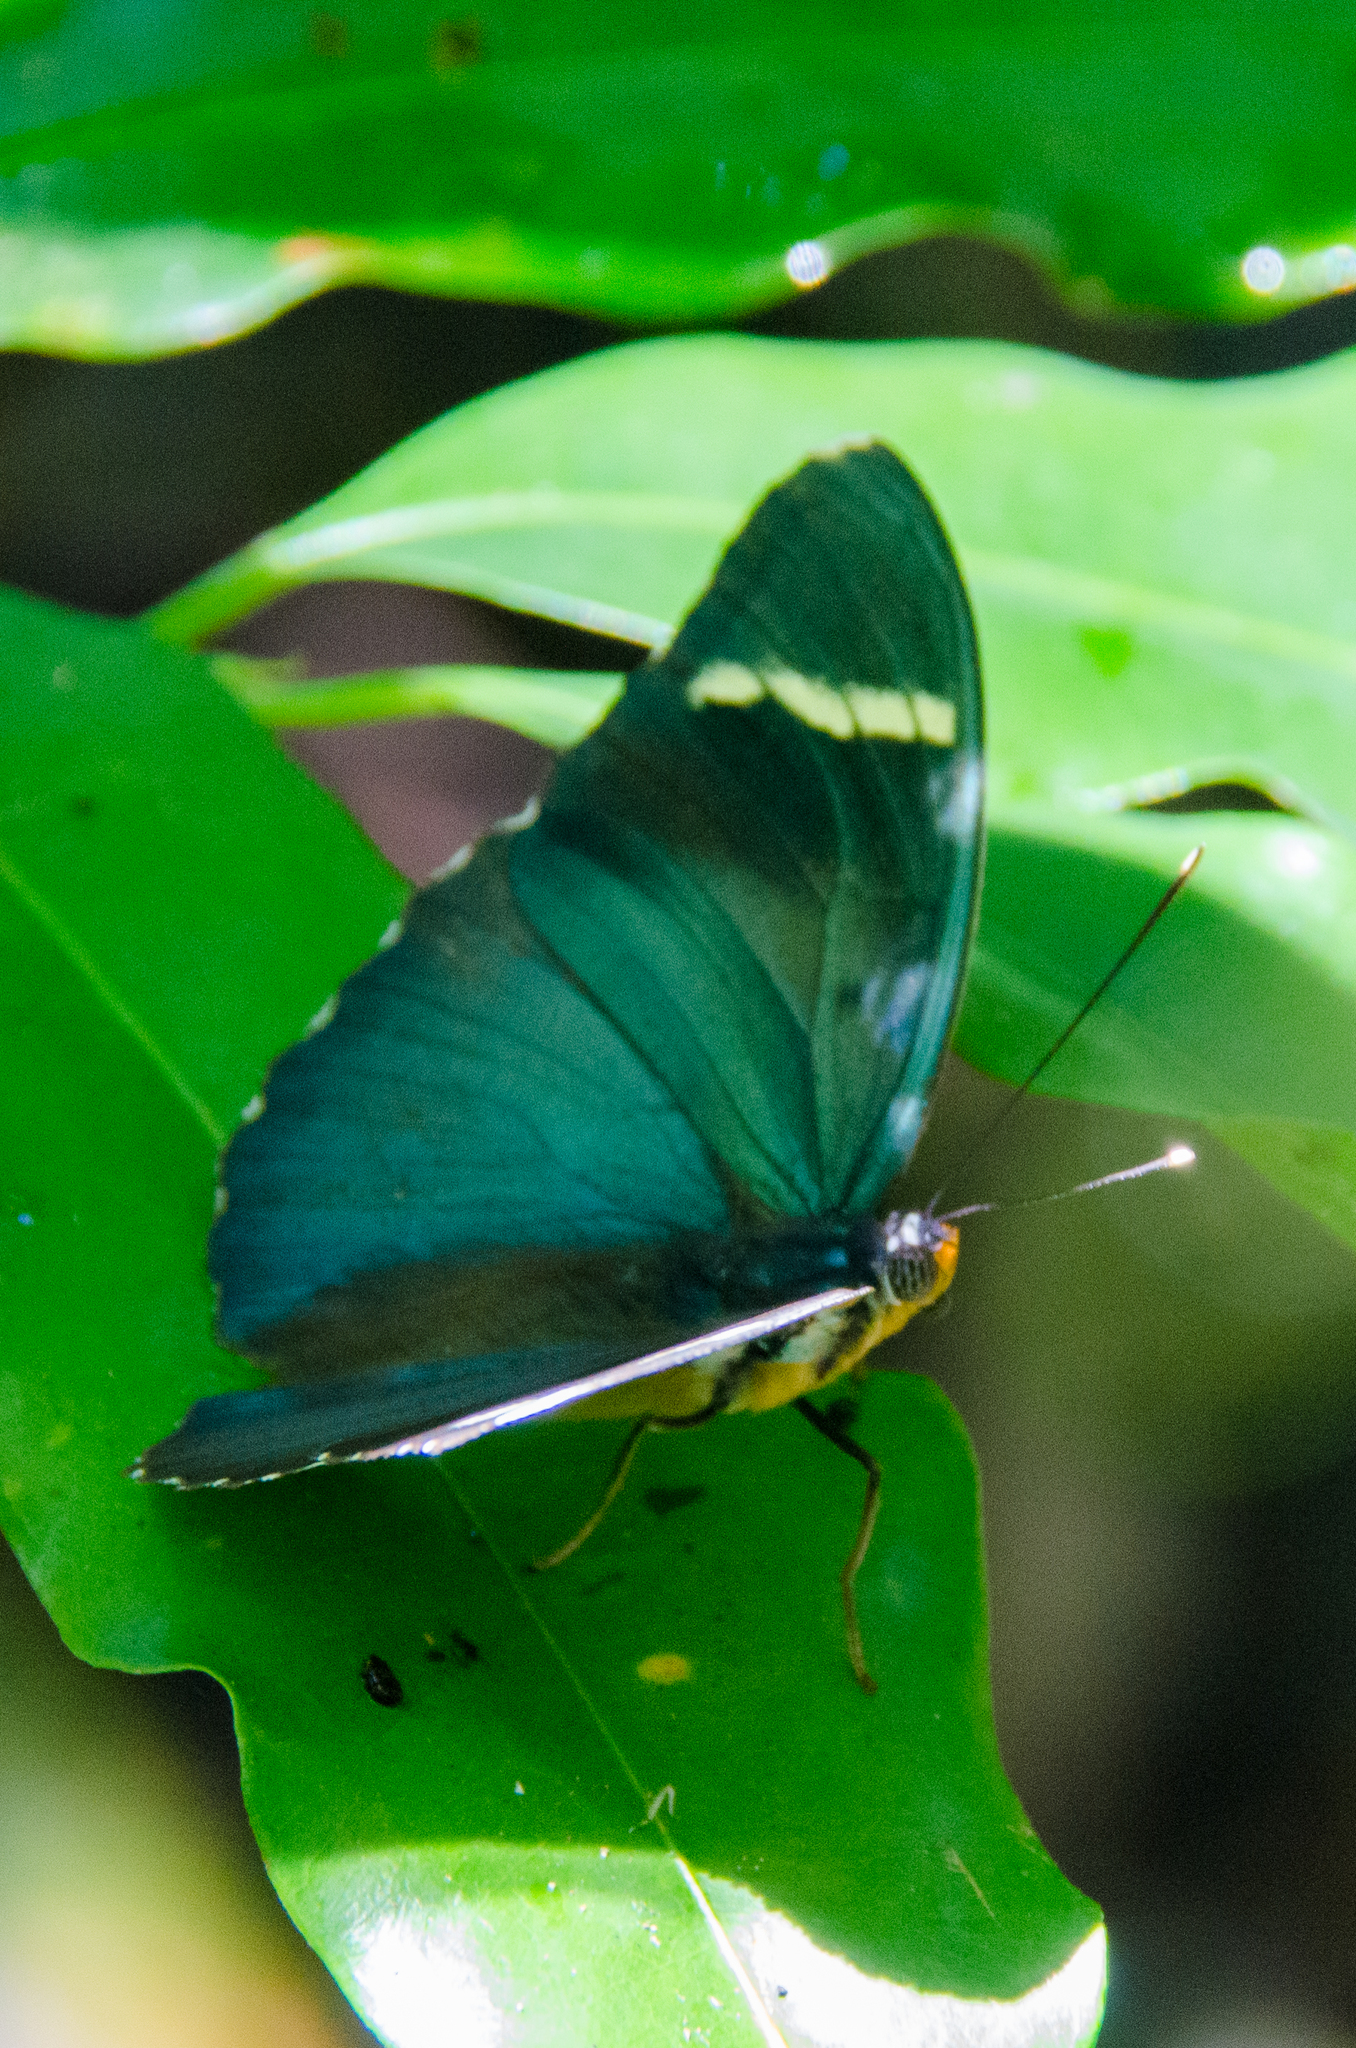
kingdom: Animalia
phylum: Arthropoda
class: Insecta
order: Lepidoptera
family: Nymphalidae
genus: Euphaedra
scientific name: Euphaedra medon
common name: Widespread forester
